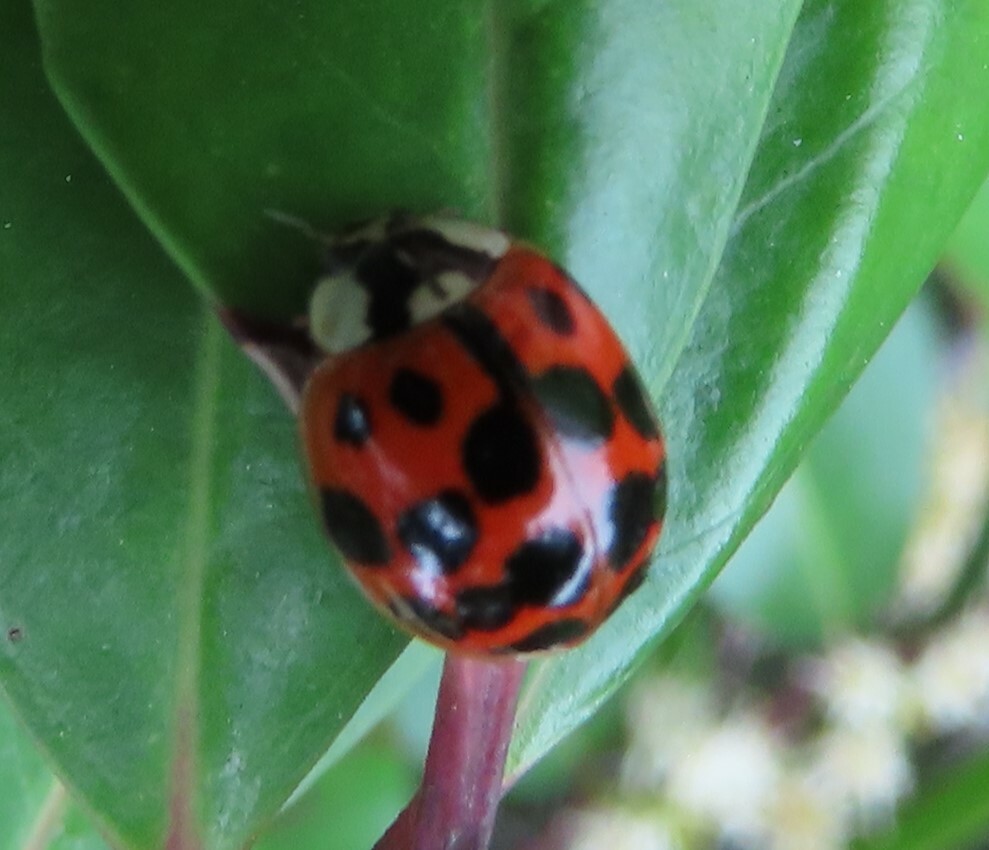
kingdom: Animalia
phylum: Arthropoda
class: Insecta
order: Coleoptera
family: Coccinellidae
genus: Harmonia
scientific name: Harmonia axyridis
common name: Harlequin ladybird
